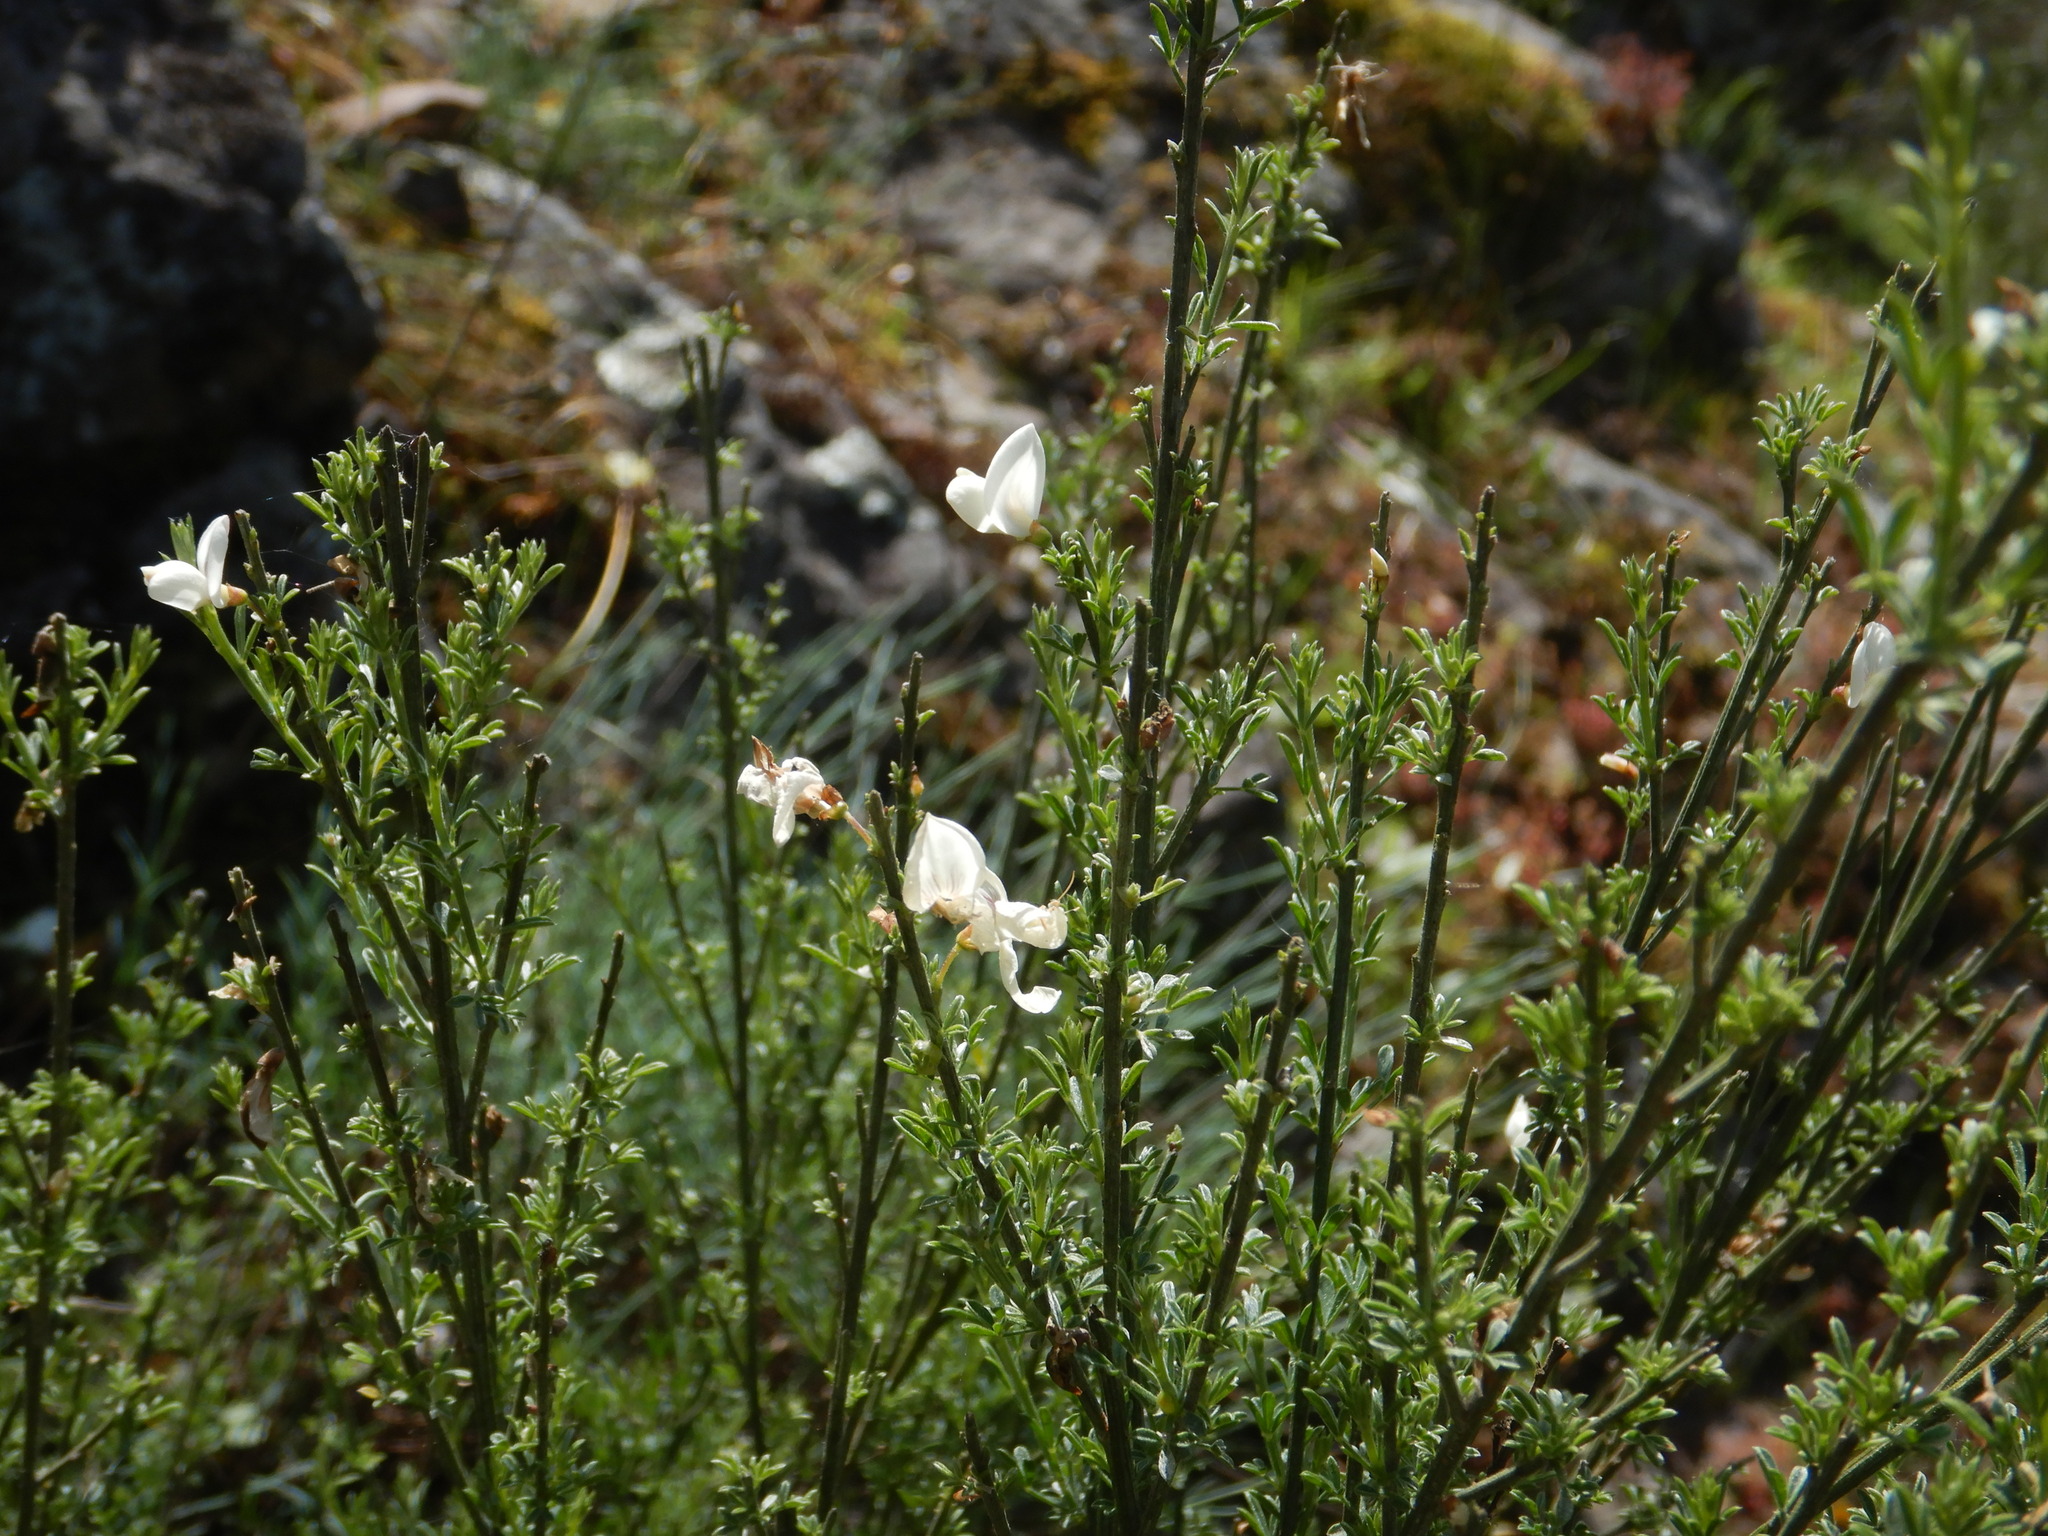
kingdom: Plantae
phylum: Tracheophyta
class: Magnoliopsida
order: Fabales
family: Fabaceae
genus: Cytisus
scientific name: Cytisus multiflorus
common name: White broom
